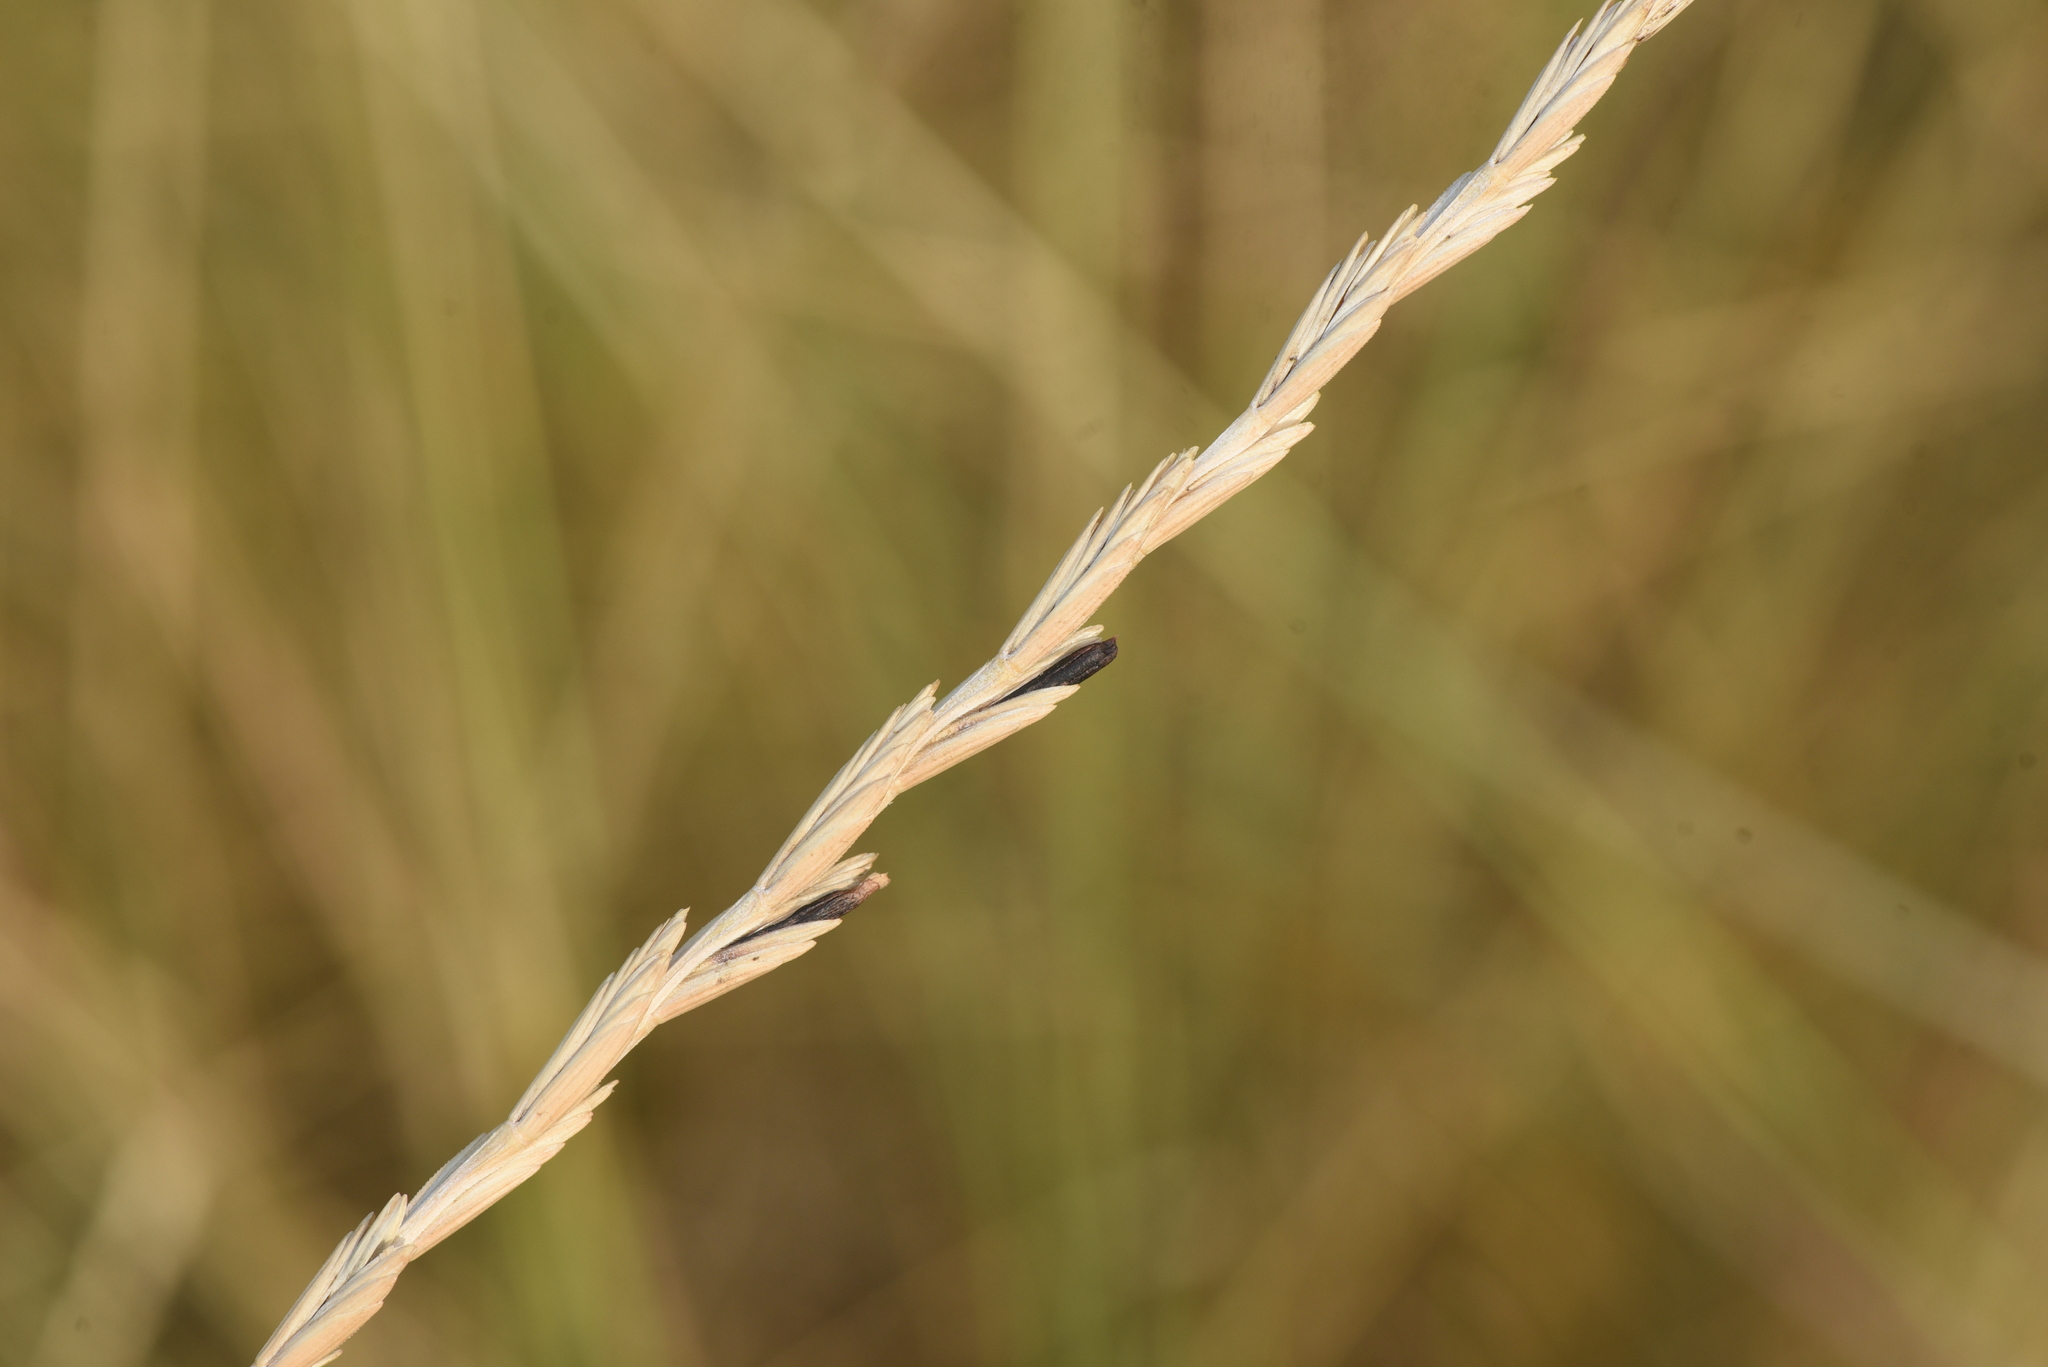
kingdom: Fungi
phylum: Ascomycota
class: Sordariomycetes
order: Hypocreales
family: Clavicipitaceae
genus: Claviceps
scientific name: Claviceps purpurea
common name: Rye ergot
